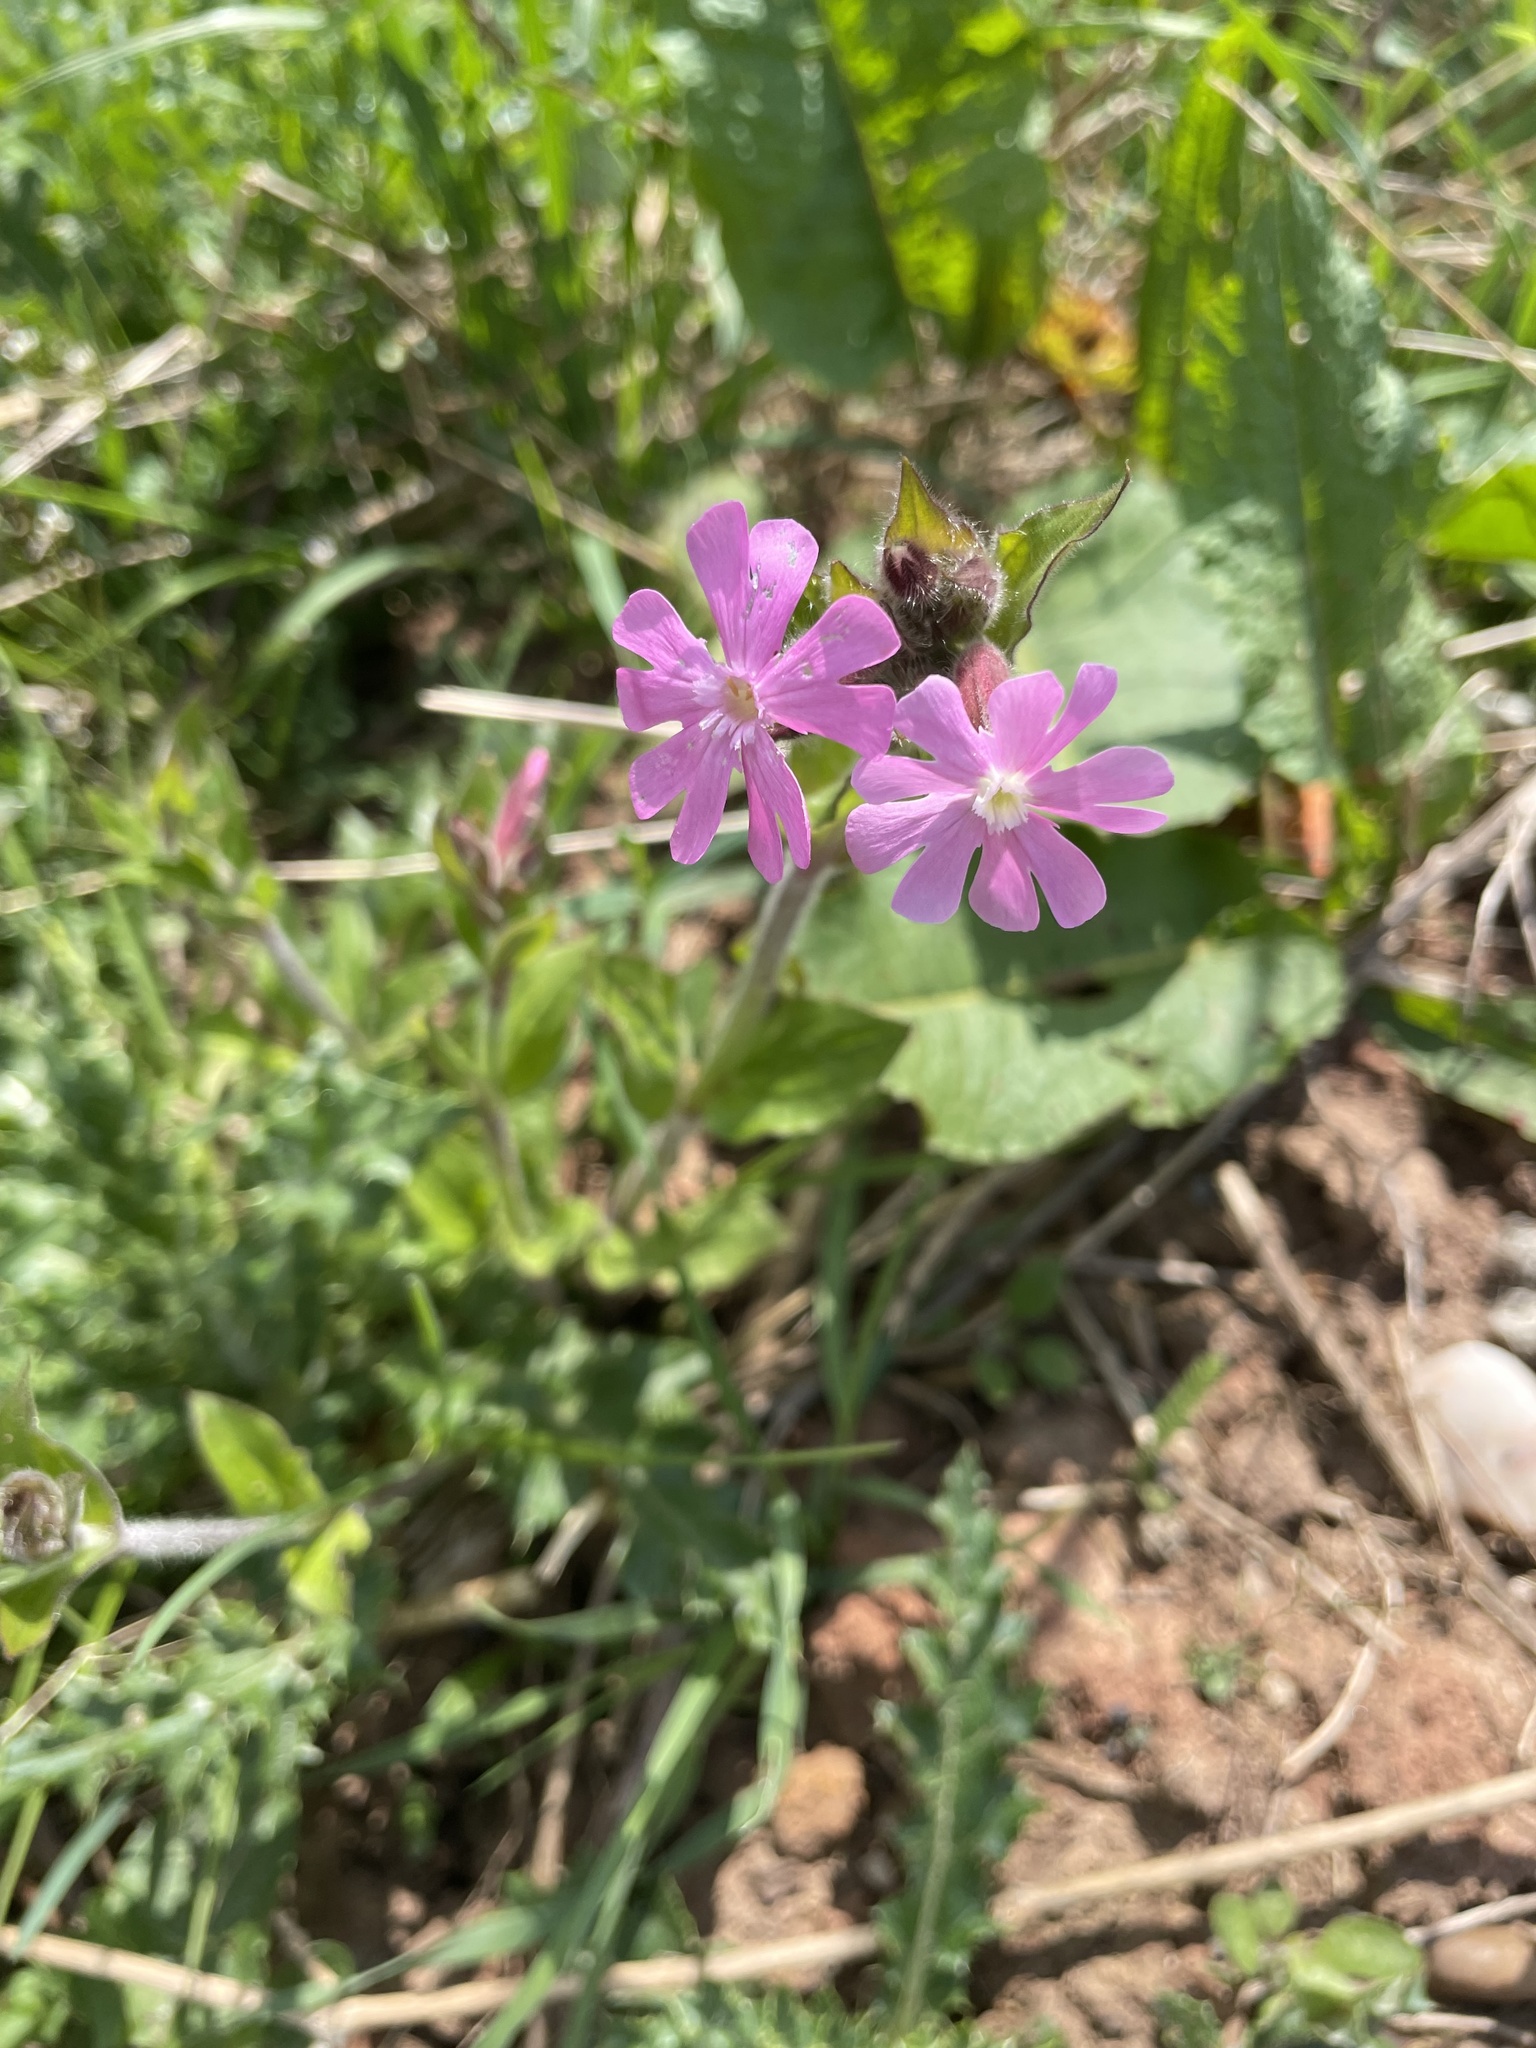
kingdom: Plantae
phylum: Tracheophyta
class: Magnoliopsida
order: Caryophyllales
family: Caryophyllaceae
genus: Silene
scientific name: Silene dioica
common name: Red campion
